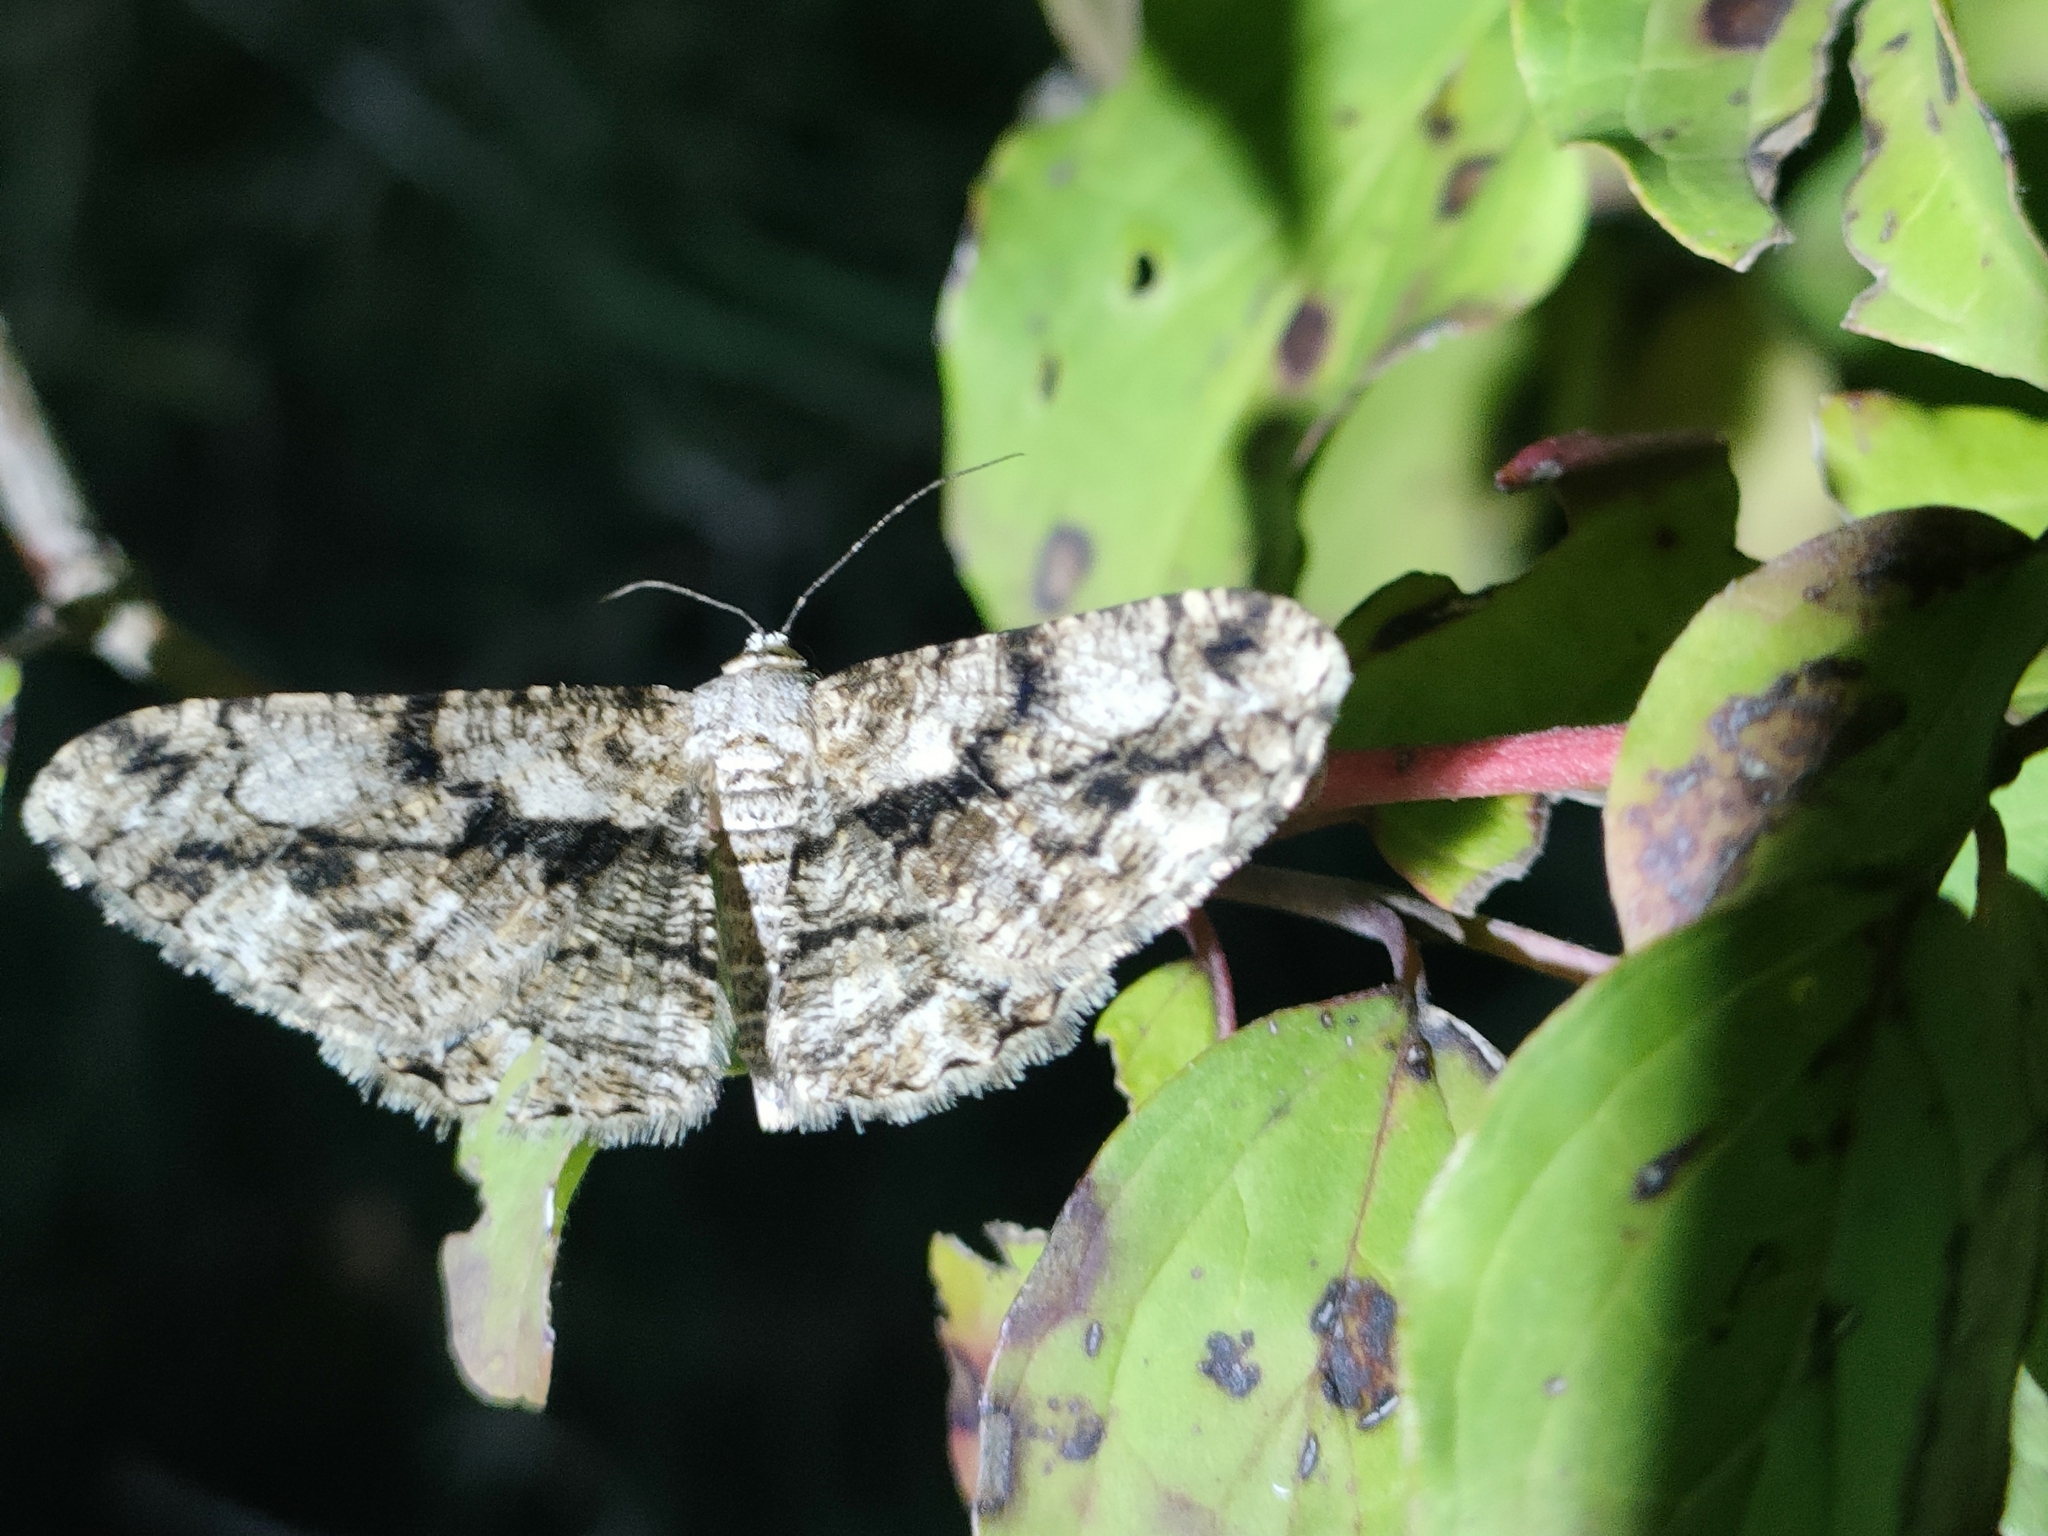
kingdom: Animalia
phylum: Arthropoda
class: Insecta
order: Lepidoptera
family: Geometridae
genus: Peribatodes
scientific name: Peribatodes umbraria
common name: Olive-tree beauty
